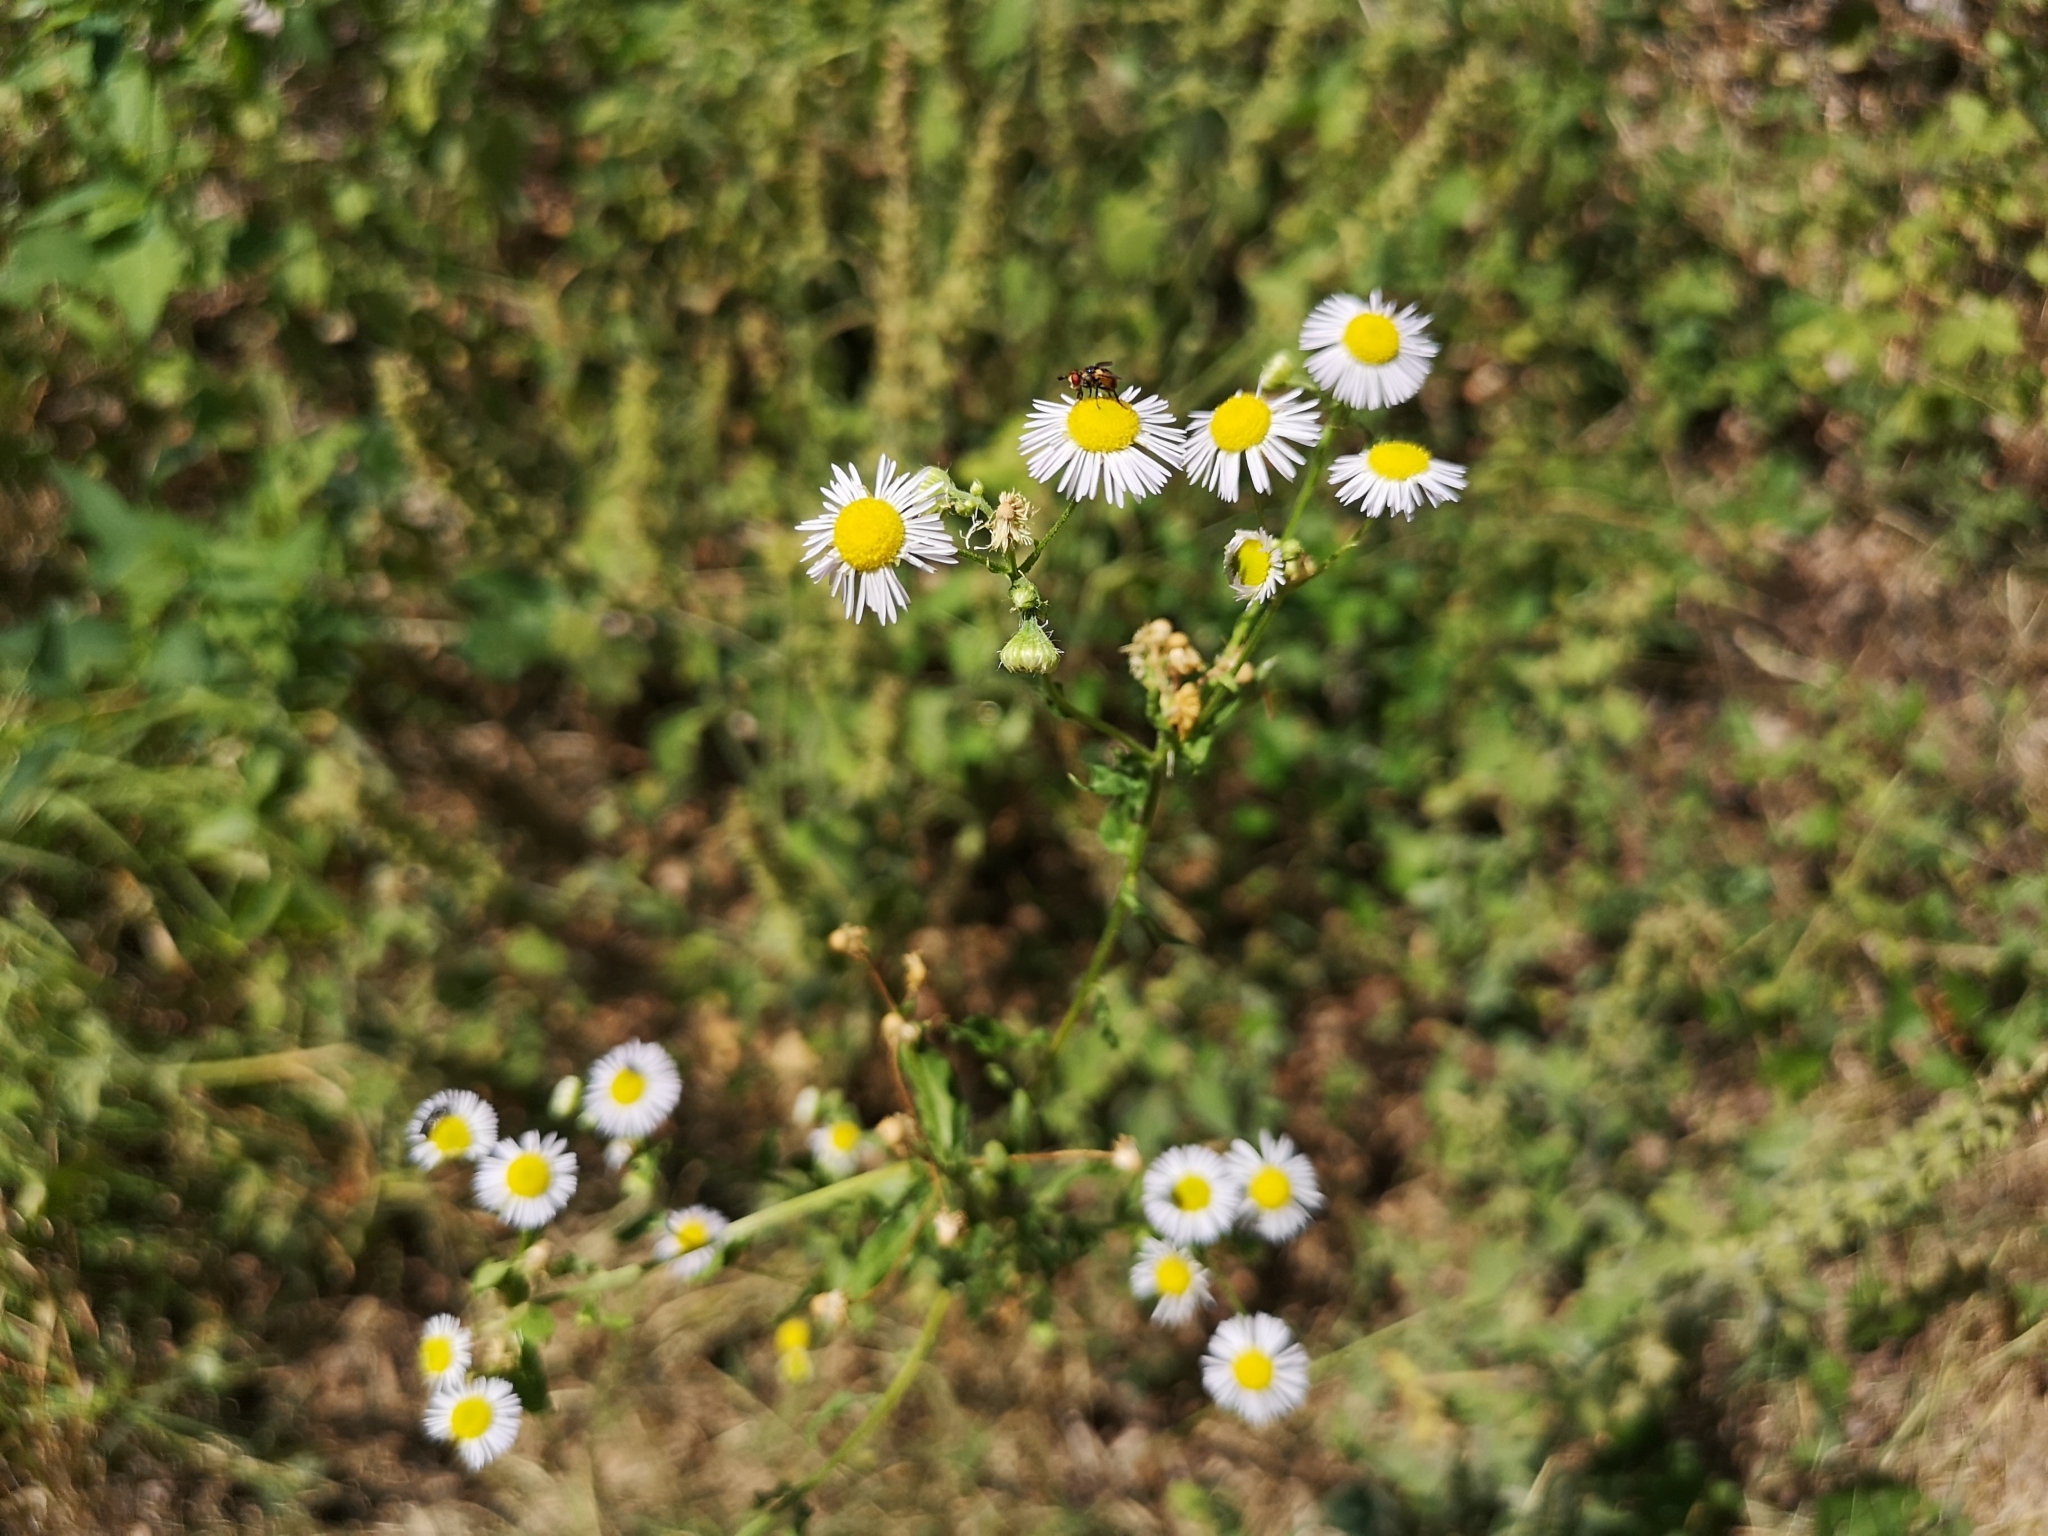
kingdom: Plantae
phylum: Tracheophyta
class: Magnoliopsida
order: Asterales
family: Asteraceae
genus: Erigeron
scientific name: Erigeron annuus
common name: Tall fleabane
